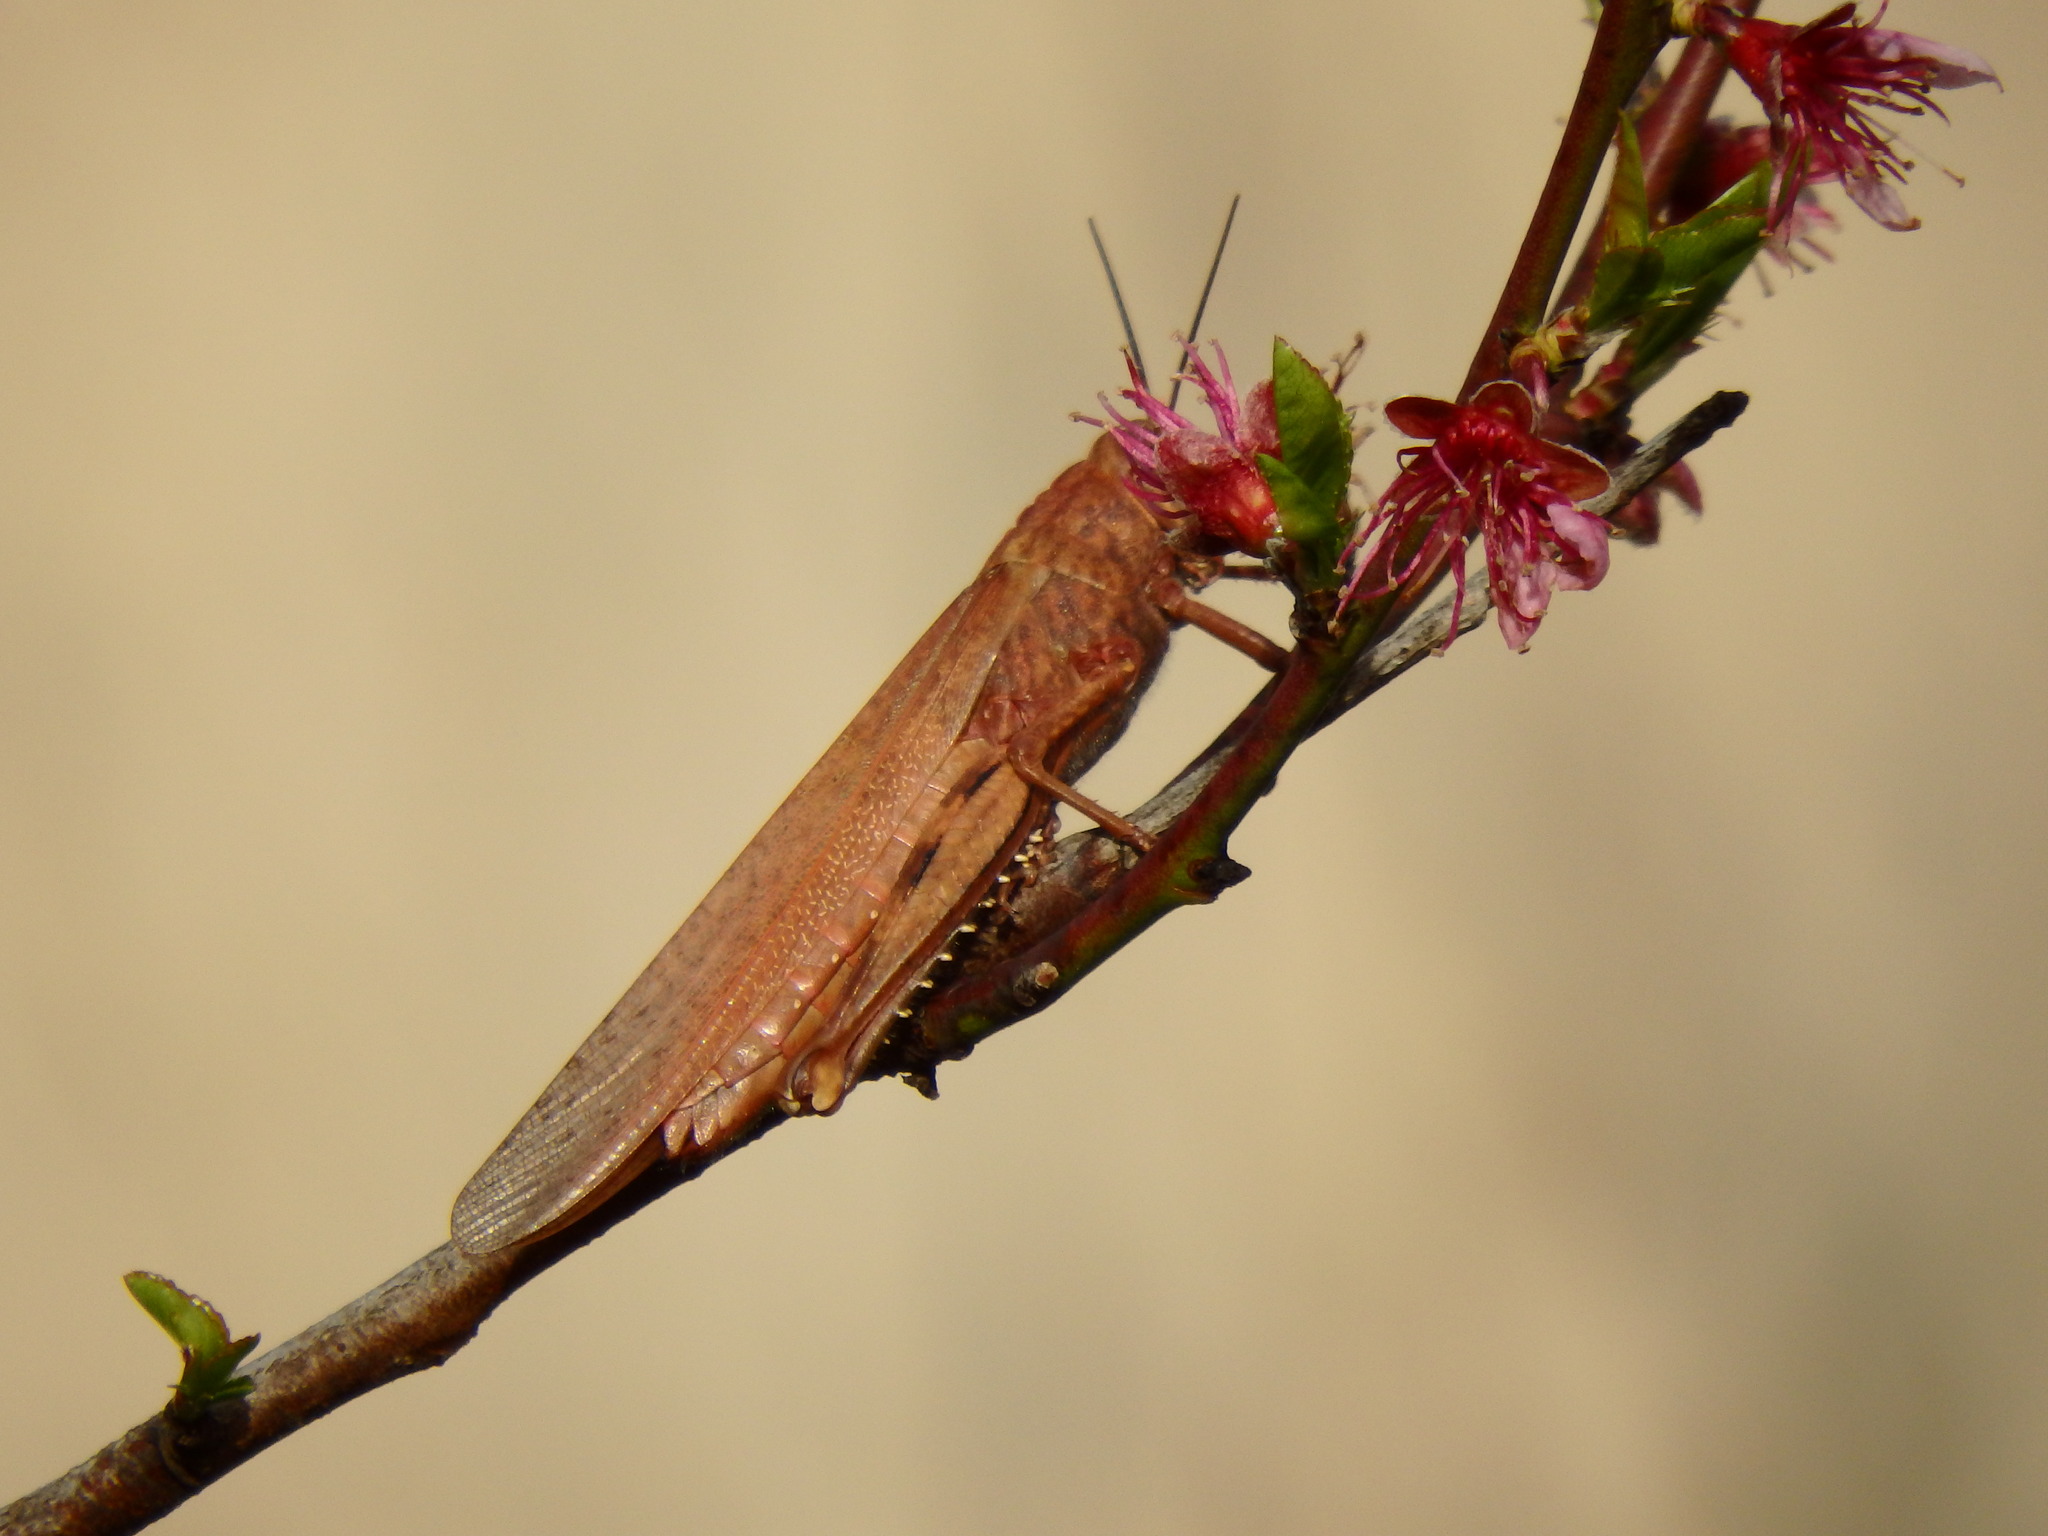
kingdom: Animalia
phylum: Arthropoda
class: Insecta
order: Orthoptera
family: Acrididae
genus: Anacridium
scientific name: Anacridium aegyptium
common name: Egyptian grasshopper
